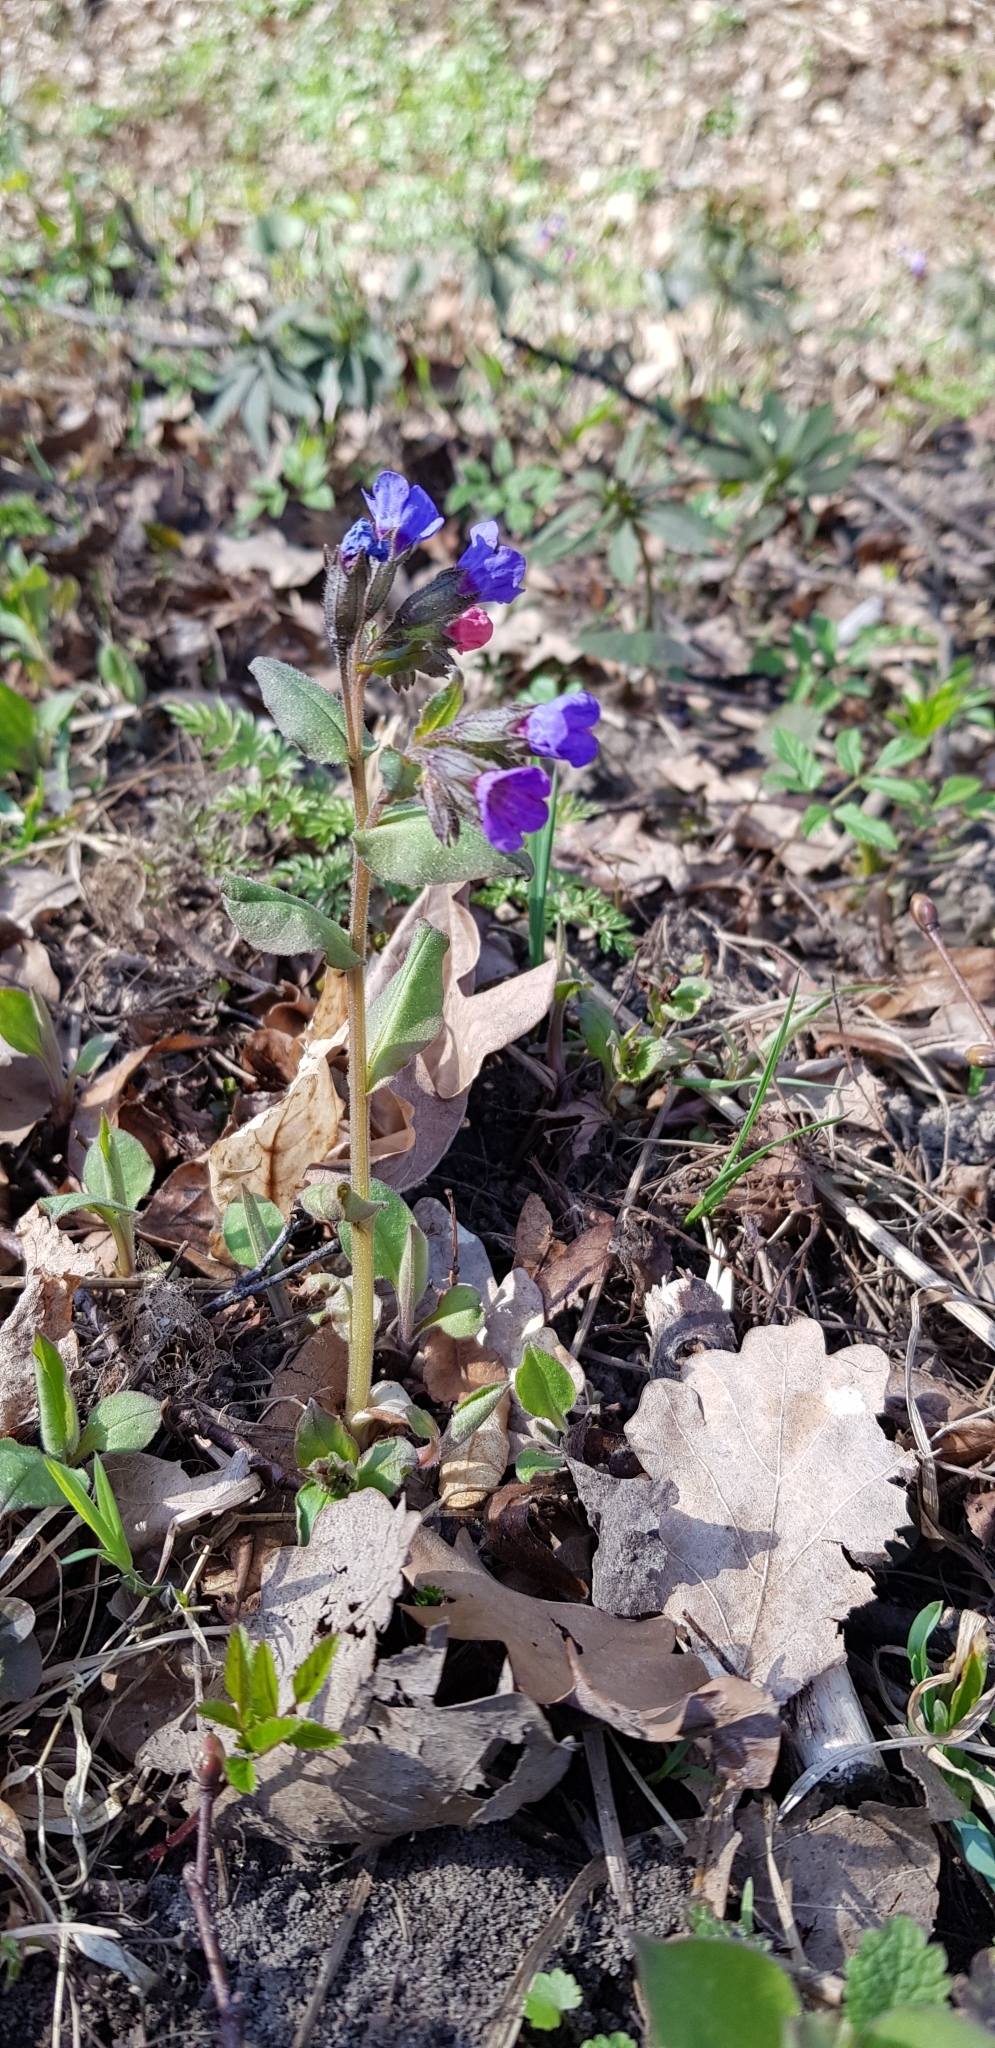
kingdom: Plantae
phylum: Tracheophyta
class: Magnoliopsida
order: Boraginales
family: Boraginaceae
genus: Pulmonaria
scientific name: Pulmonaria obscura
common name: Suffolk lungwort
